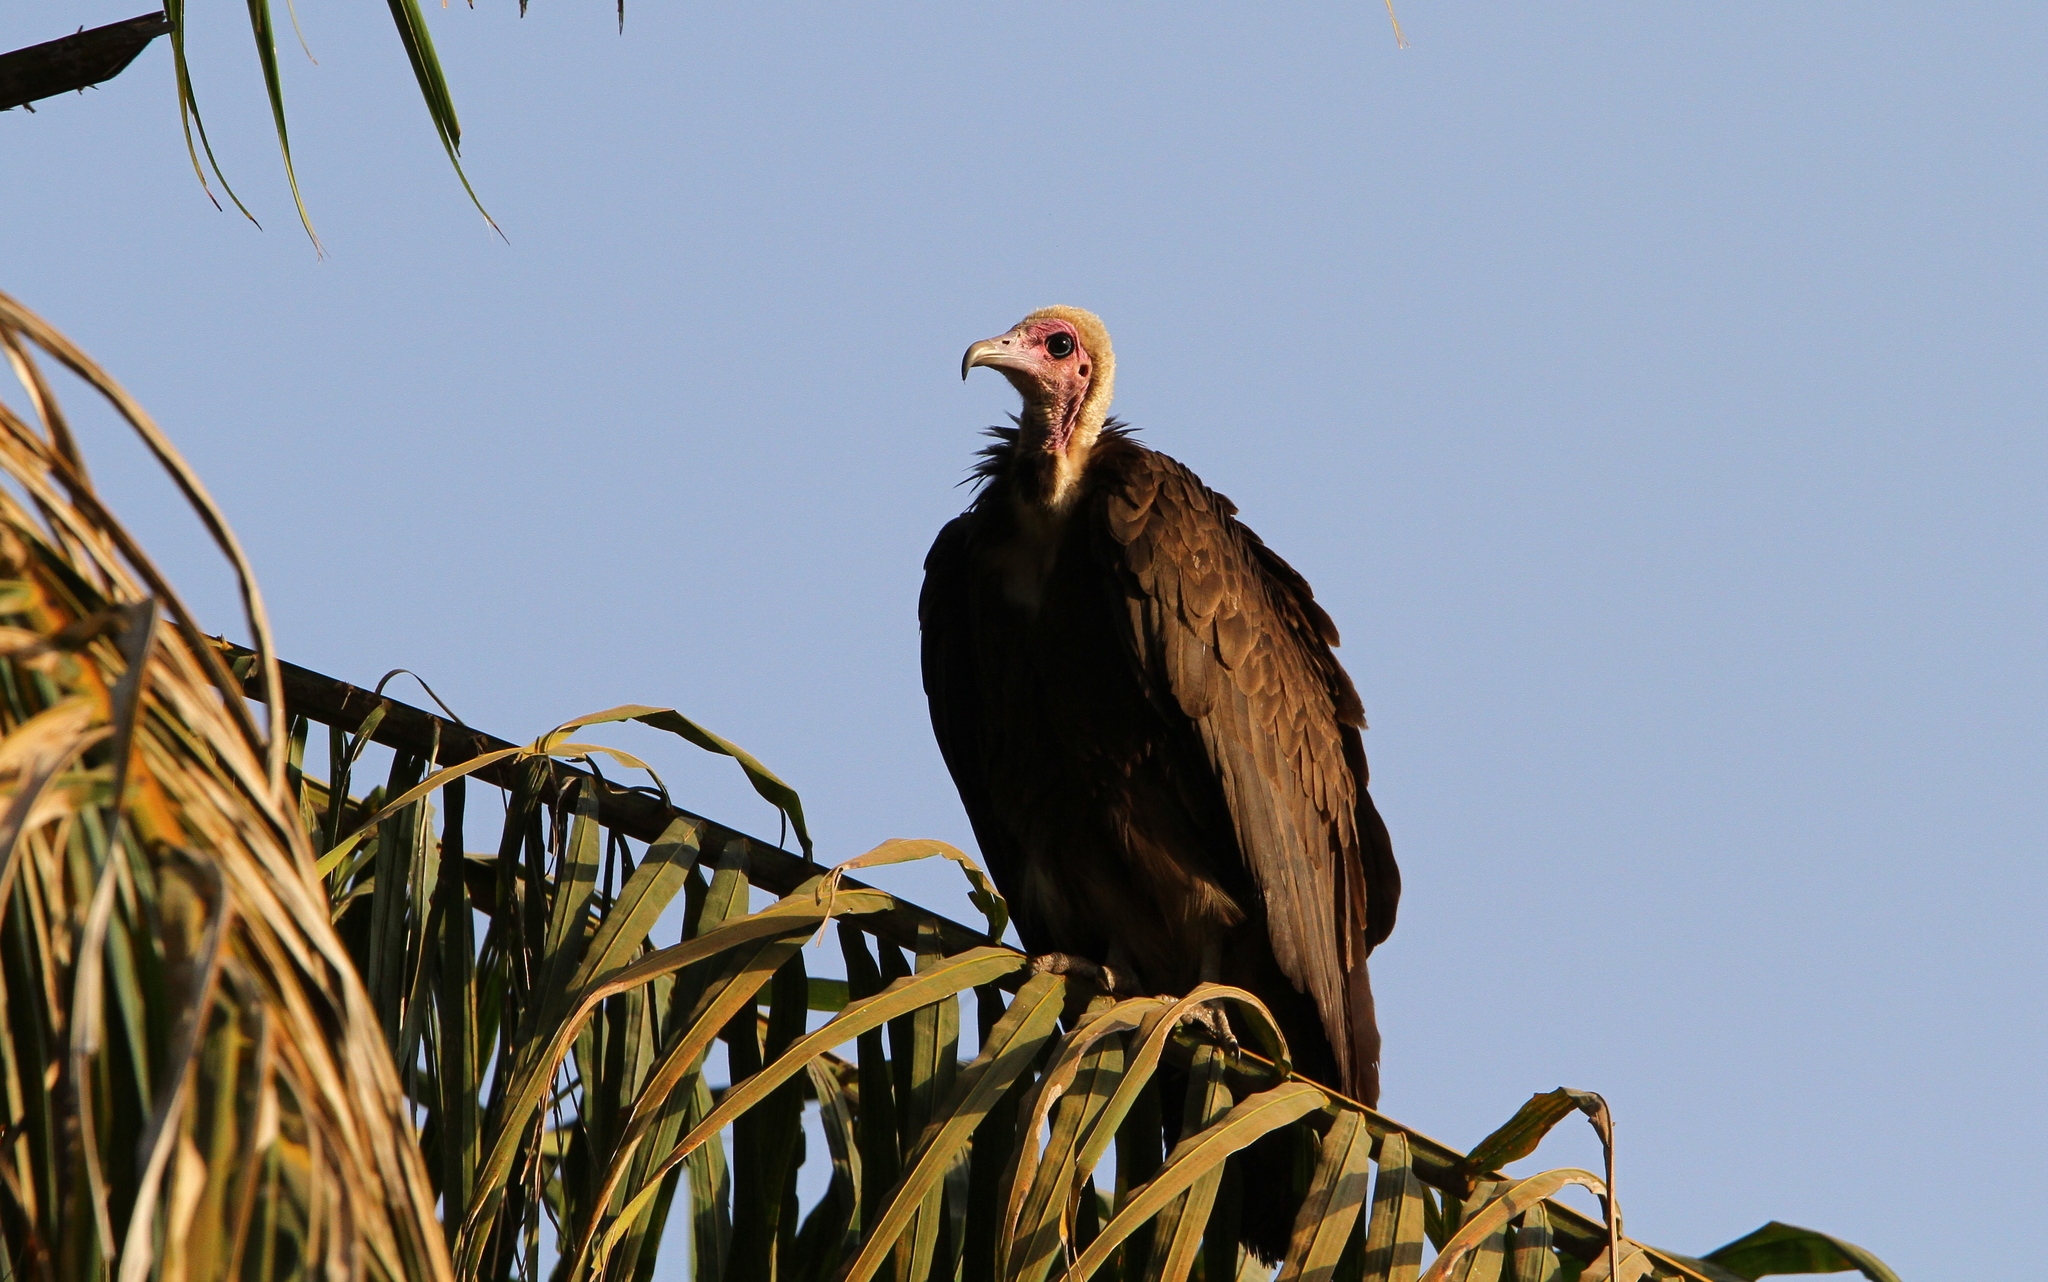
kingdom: Animalia
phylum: Chordata
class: Aves
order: Accipitriformes
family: Accipitridae
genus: Necrosyrtes
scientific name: Necrosyrtes monachus
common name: Hooded vulture
